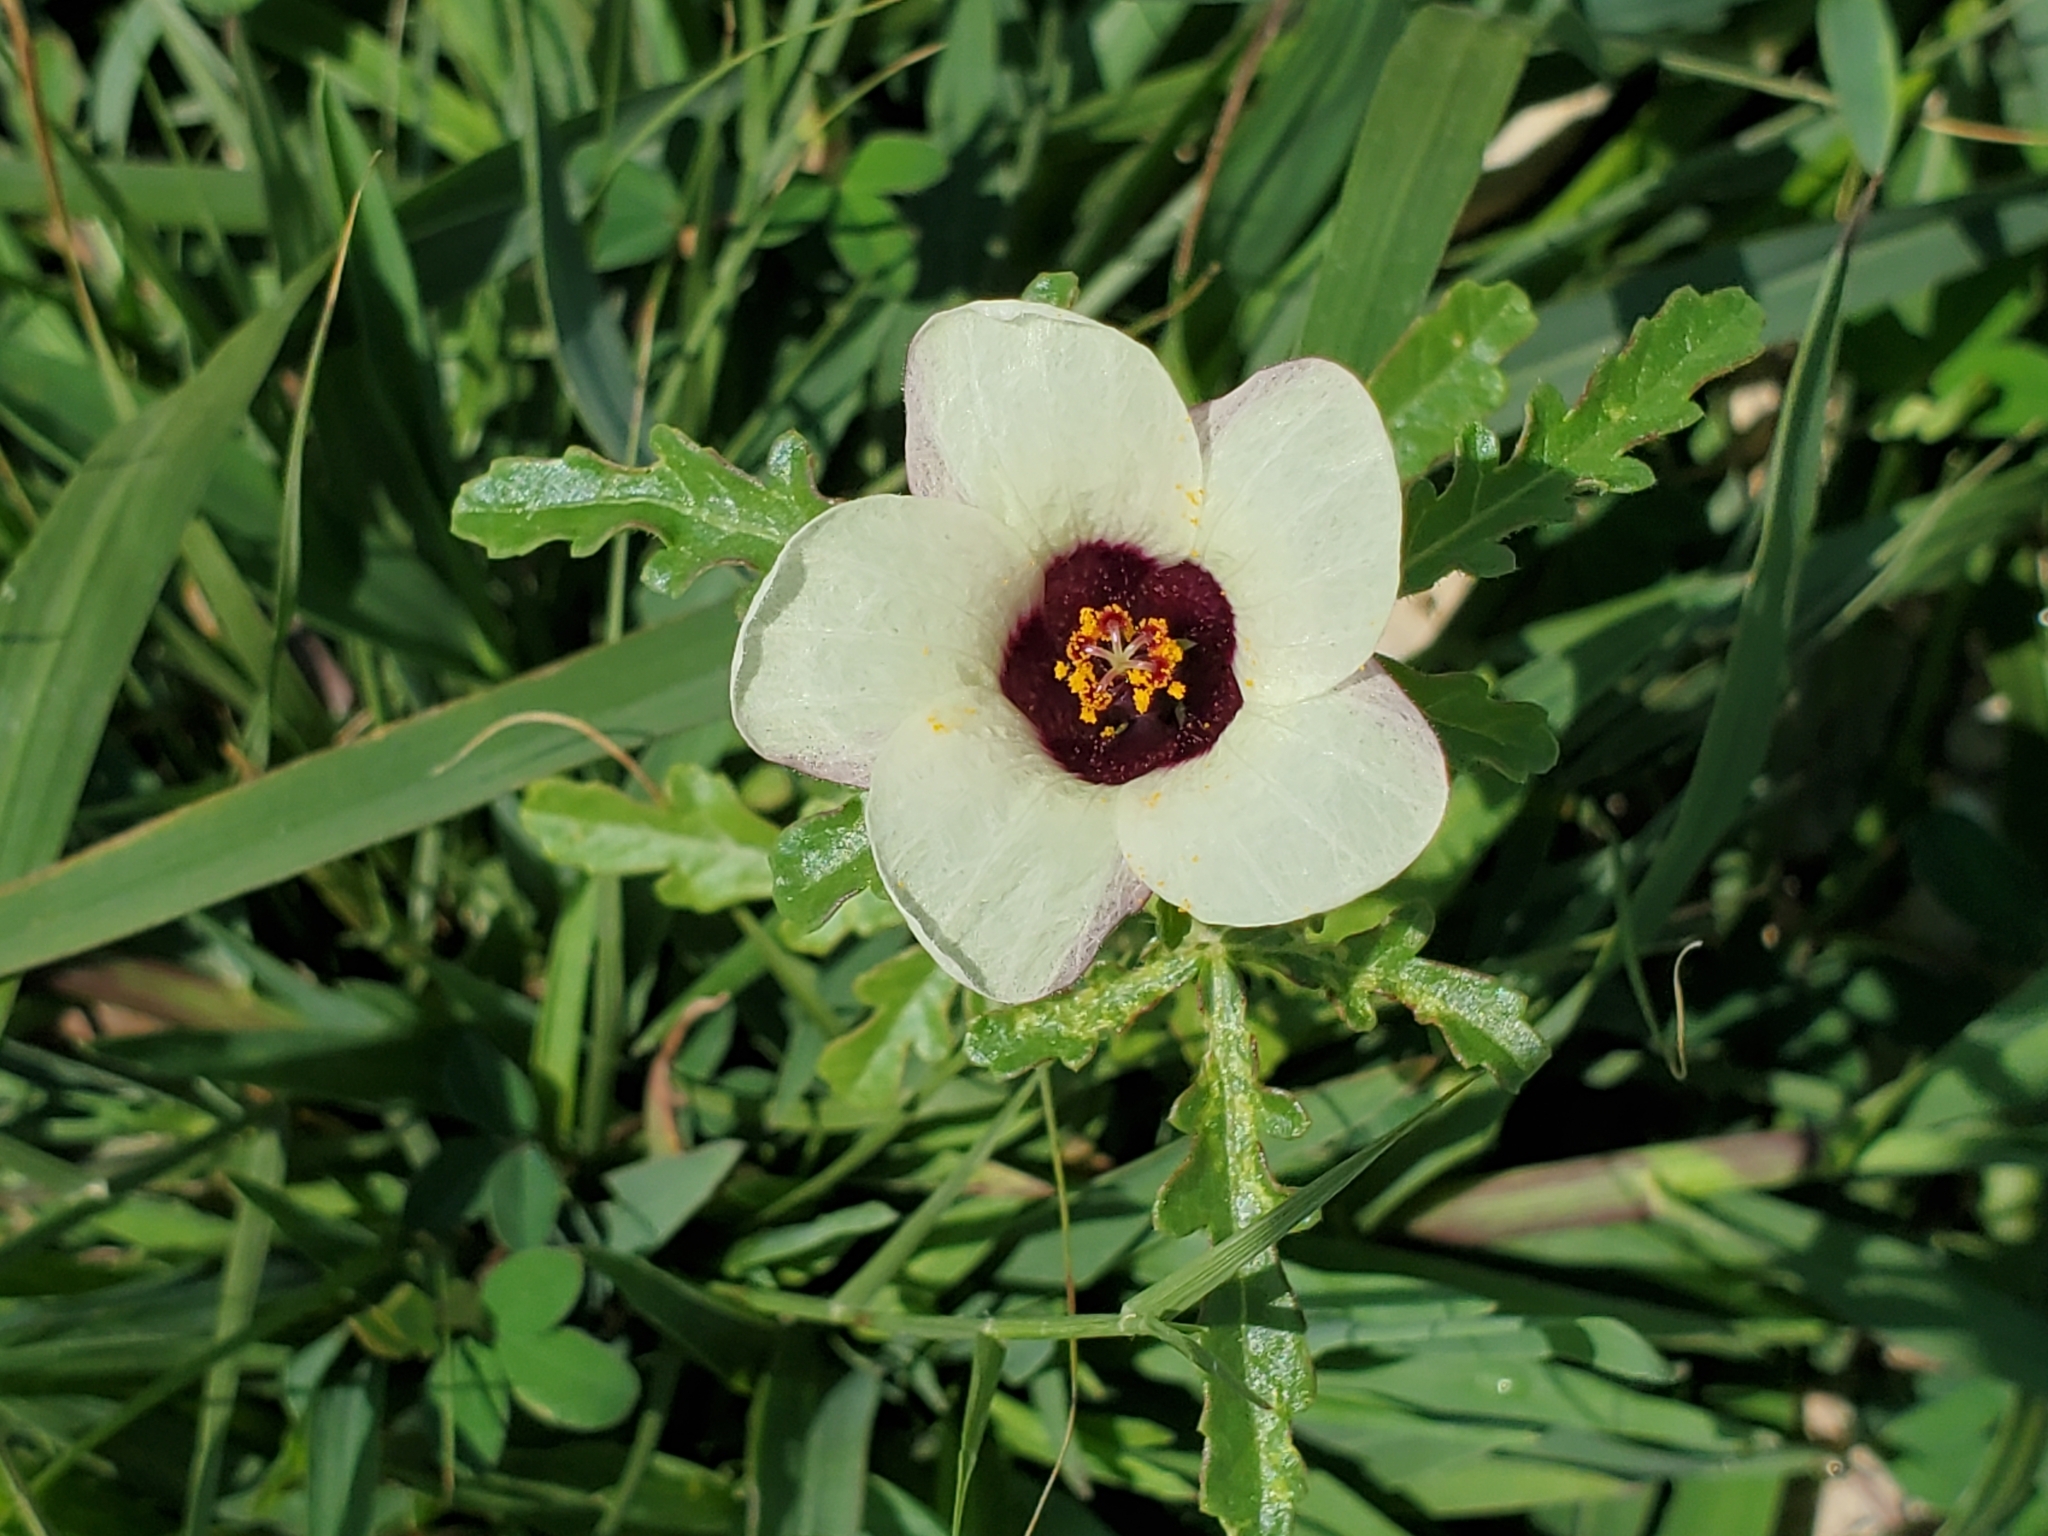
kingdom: Plantae
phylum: Tracheophyta
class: Magnoliopsida
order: Malvales
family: Malvaceae
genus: Hibiscus
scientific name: Hibiscus trionum
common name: Bladder ketmia
